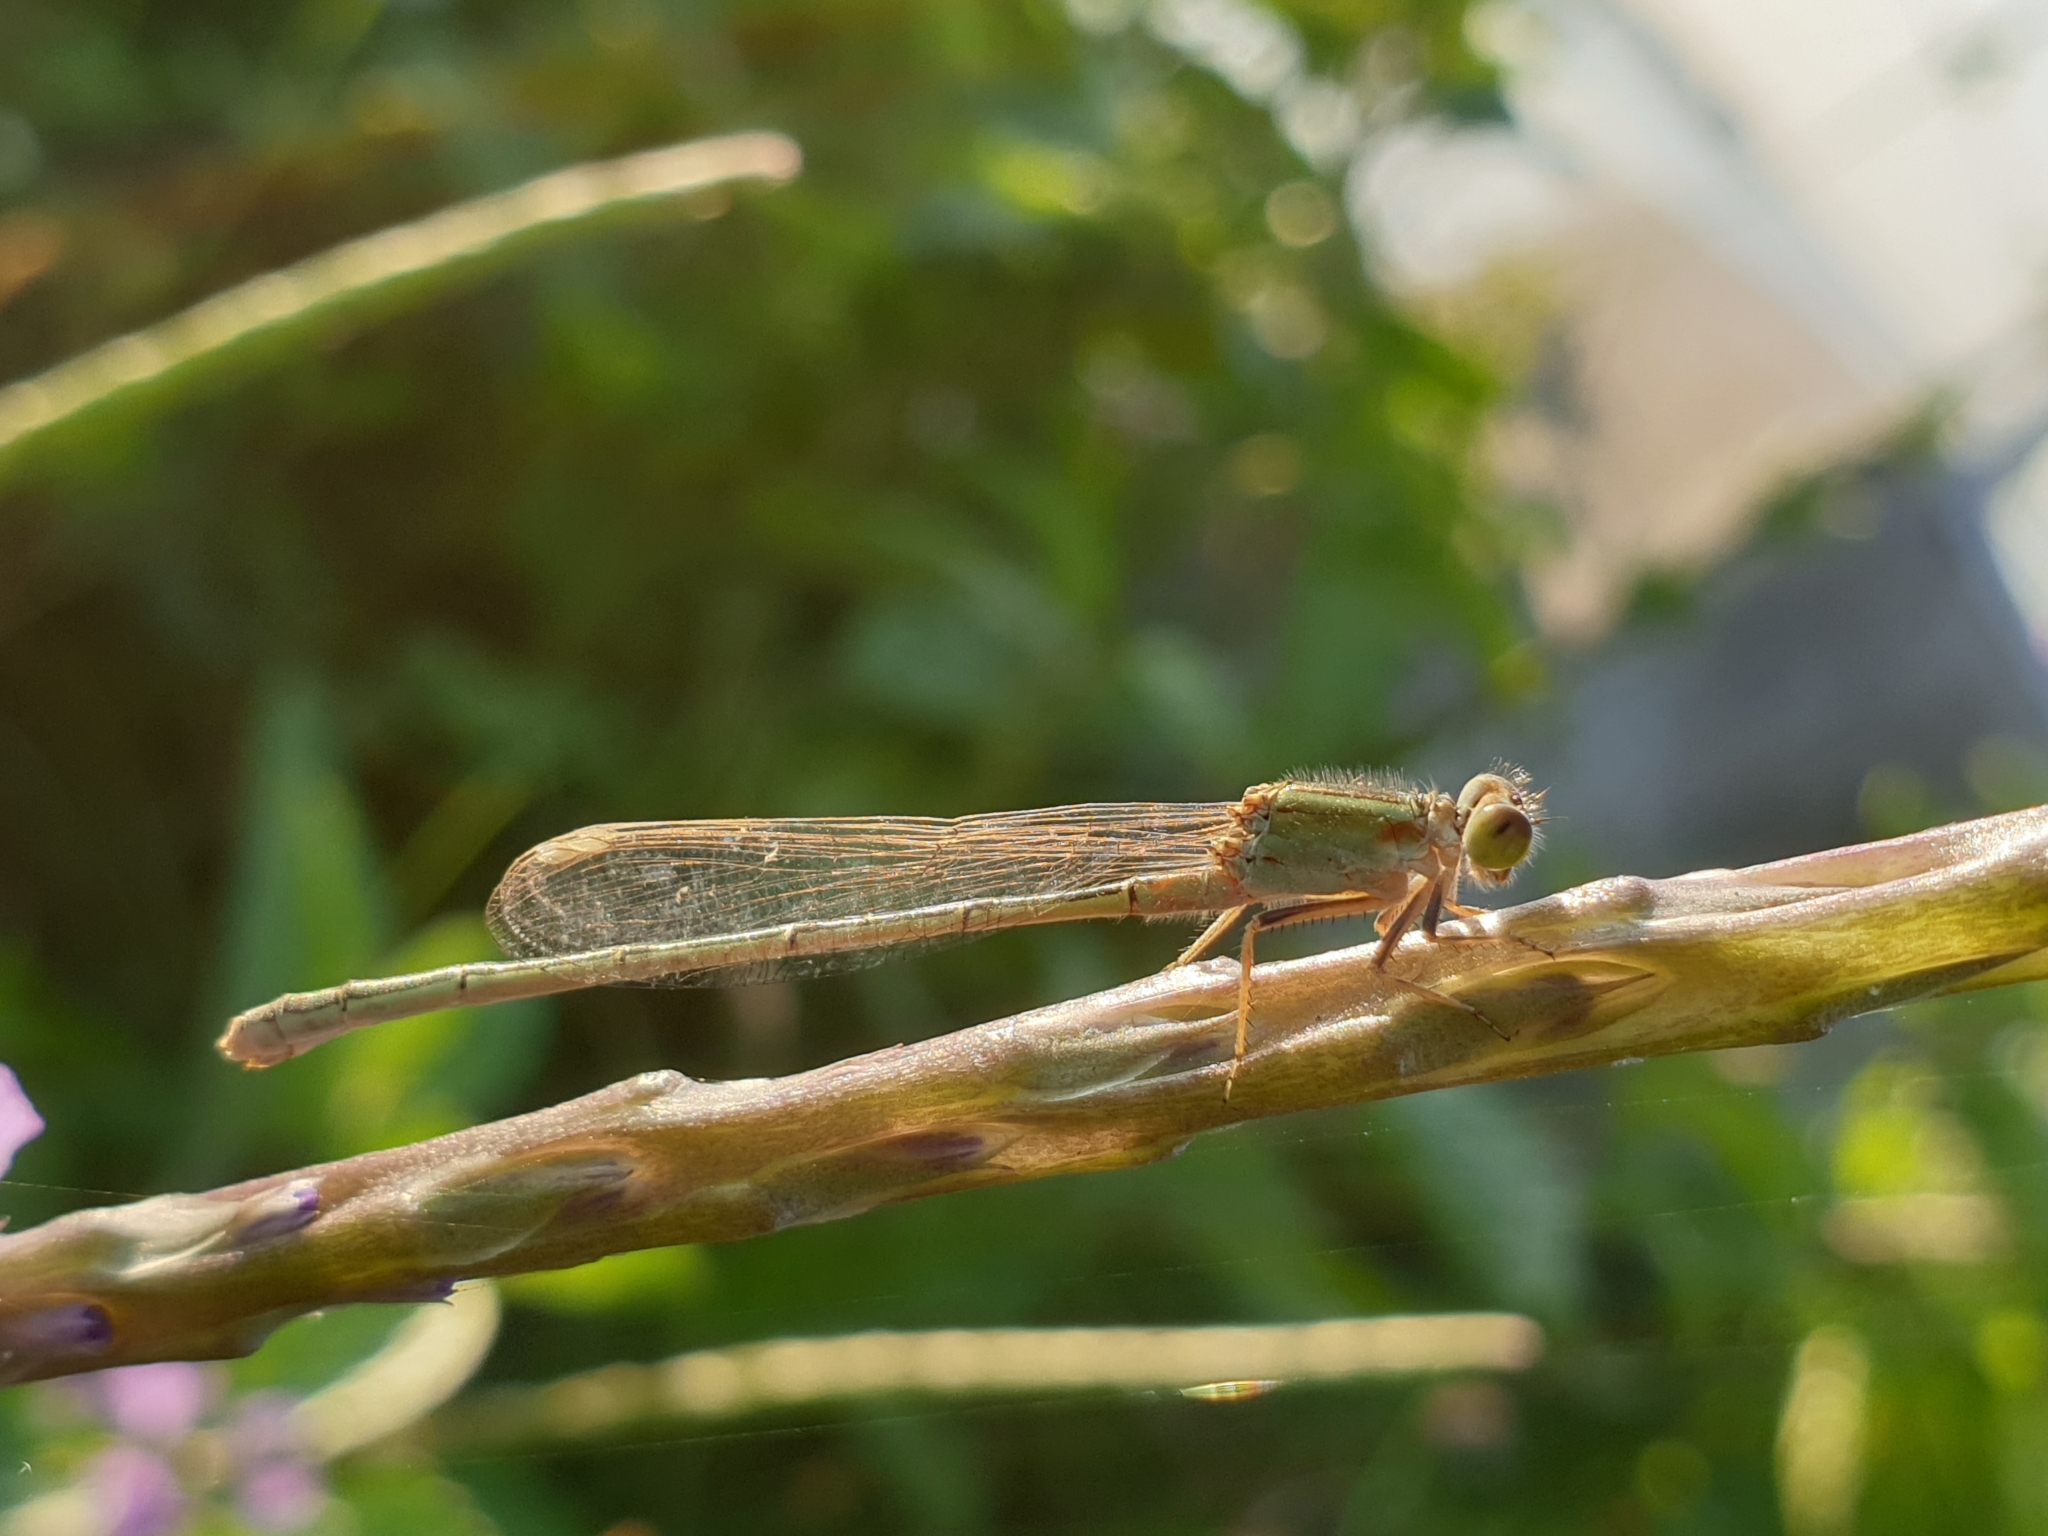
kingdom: Animalia
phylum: Arthropoda
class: Insecta
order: Odonata
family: Coenagrionidae
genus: Ischnura
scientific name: Ischnura senegalensis
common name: Tropical bluetail
